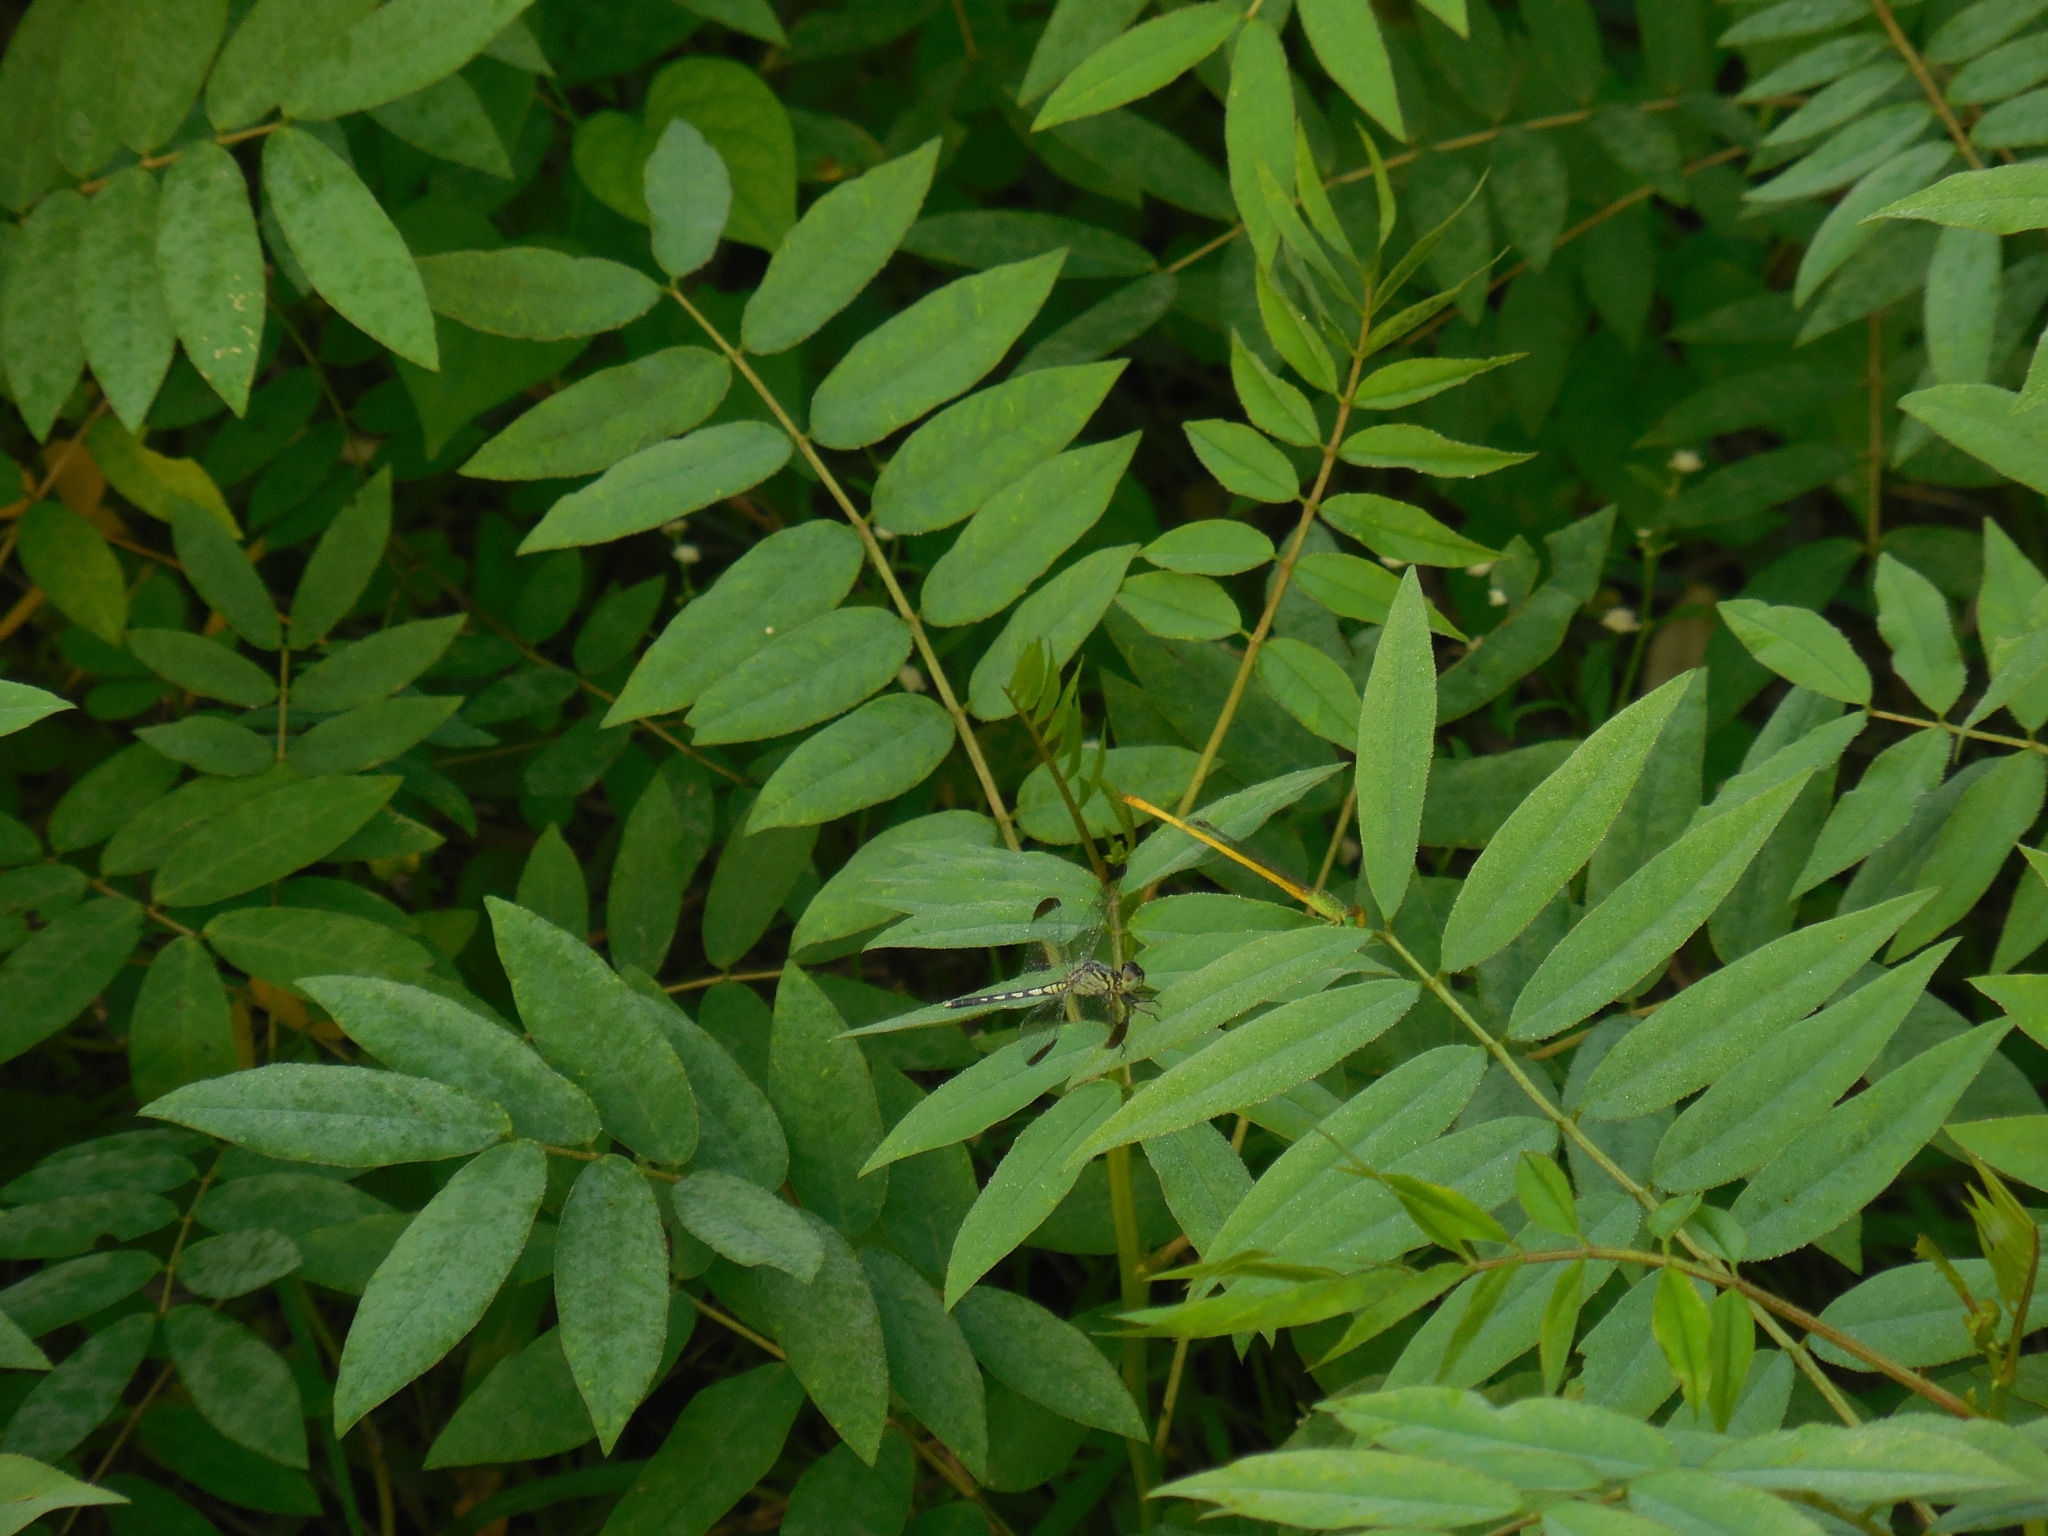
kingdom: Animalia
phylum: Arthropoda
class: Insecta
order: Odonata
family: Libellulidae
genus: Diplacodes
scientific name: Diplacodes nebulosa
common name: Black-tipped percher
